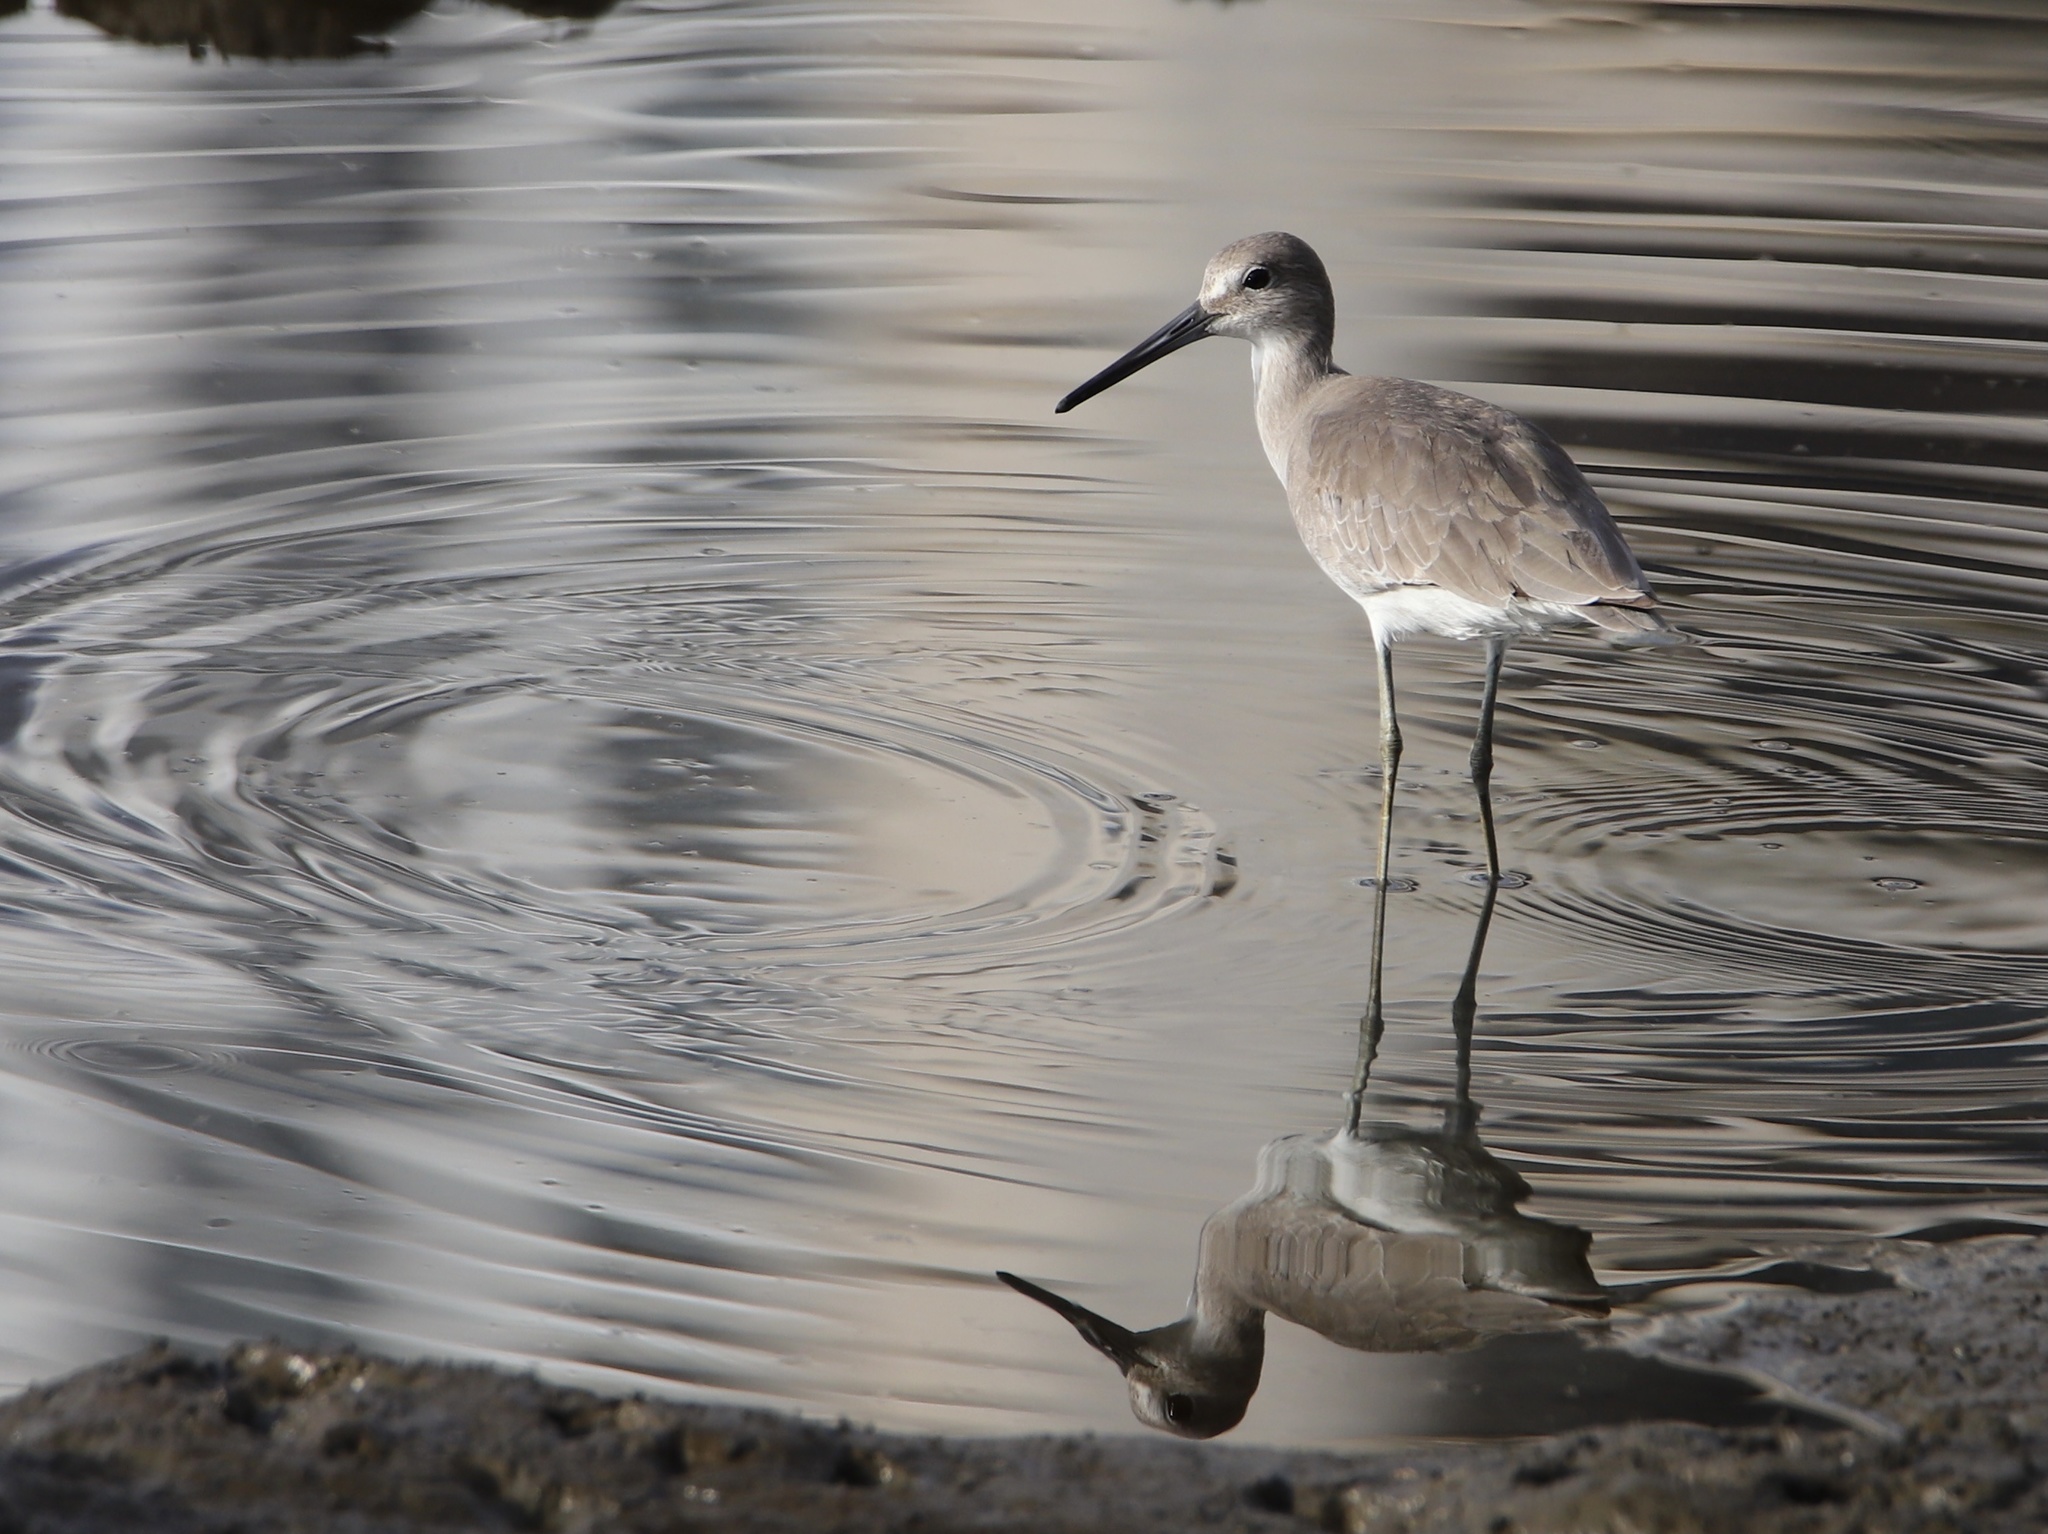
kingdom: Animalia
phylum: Chordata
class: Aves
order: Charadriiformes
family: Scolopacidae
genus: Tringa
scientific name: Tringa semipalmata
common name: Willet
